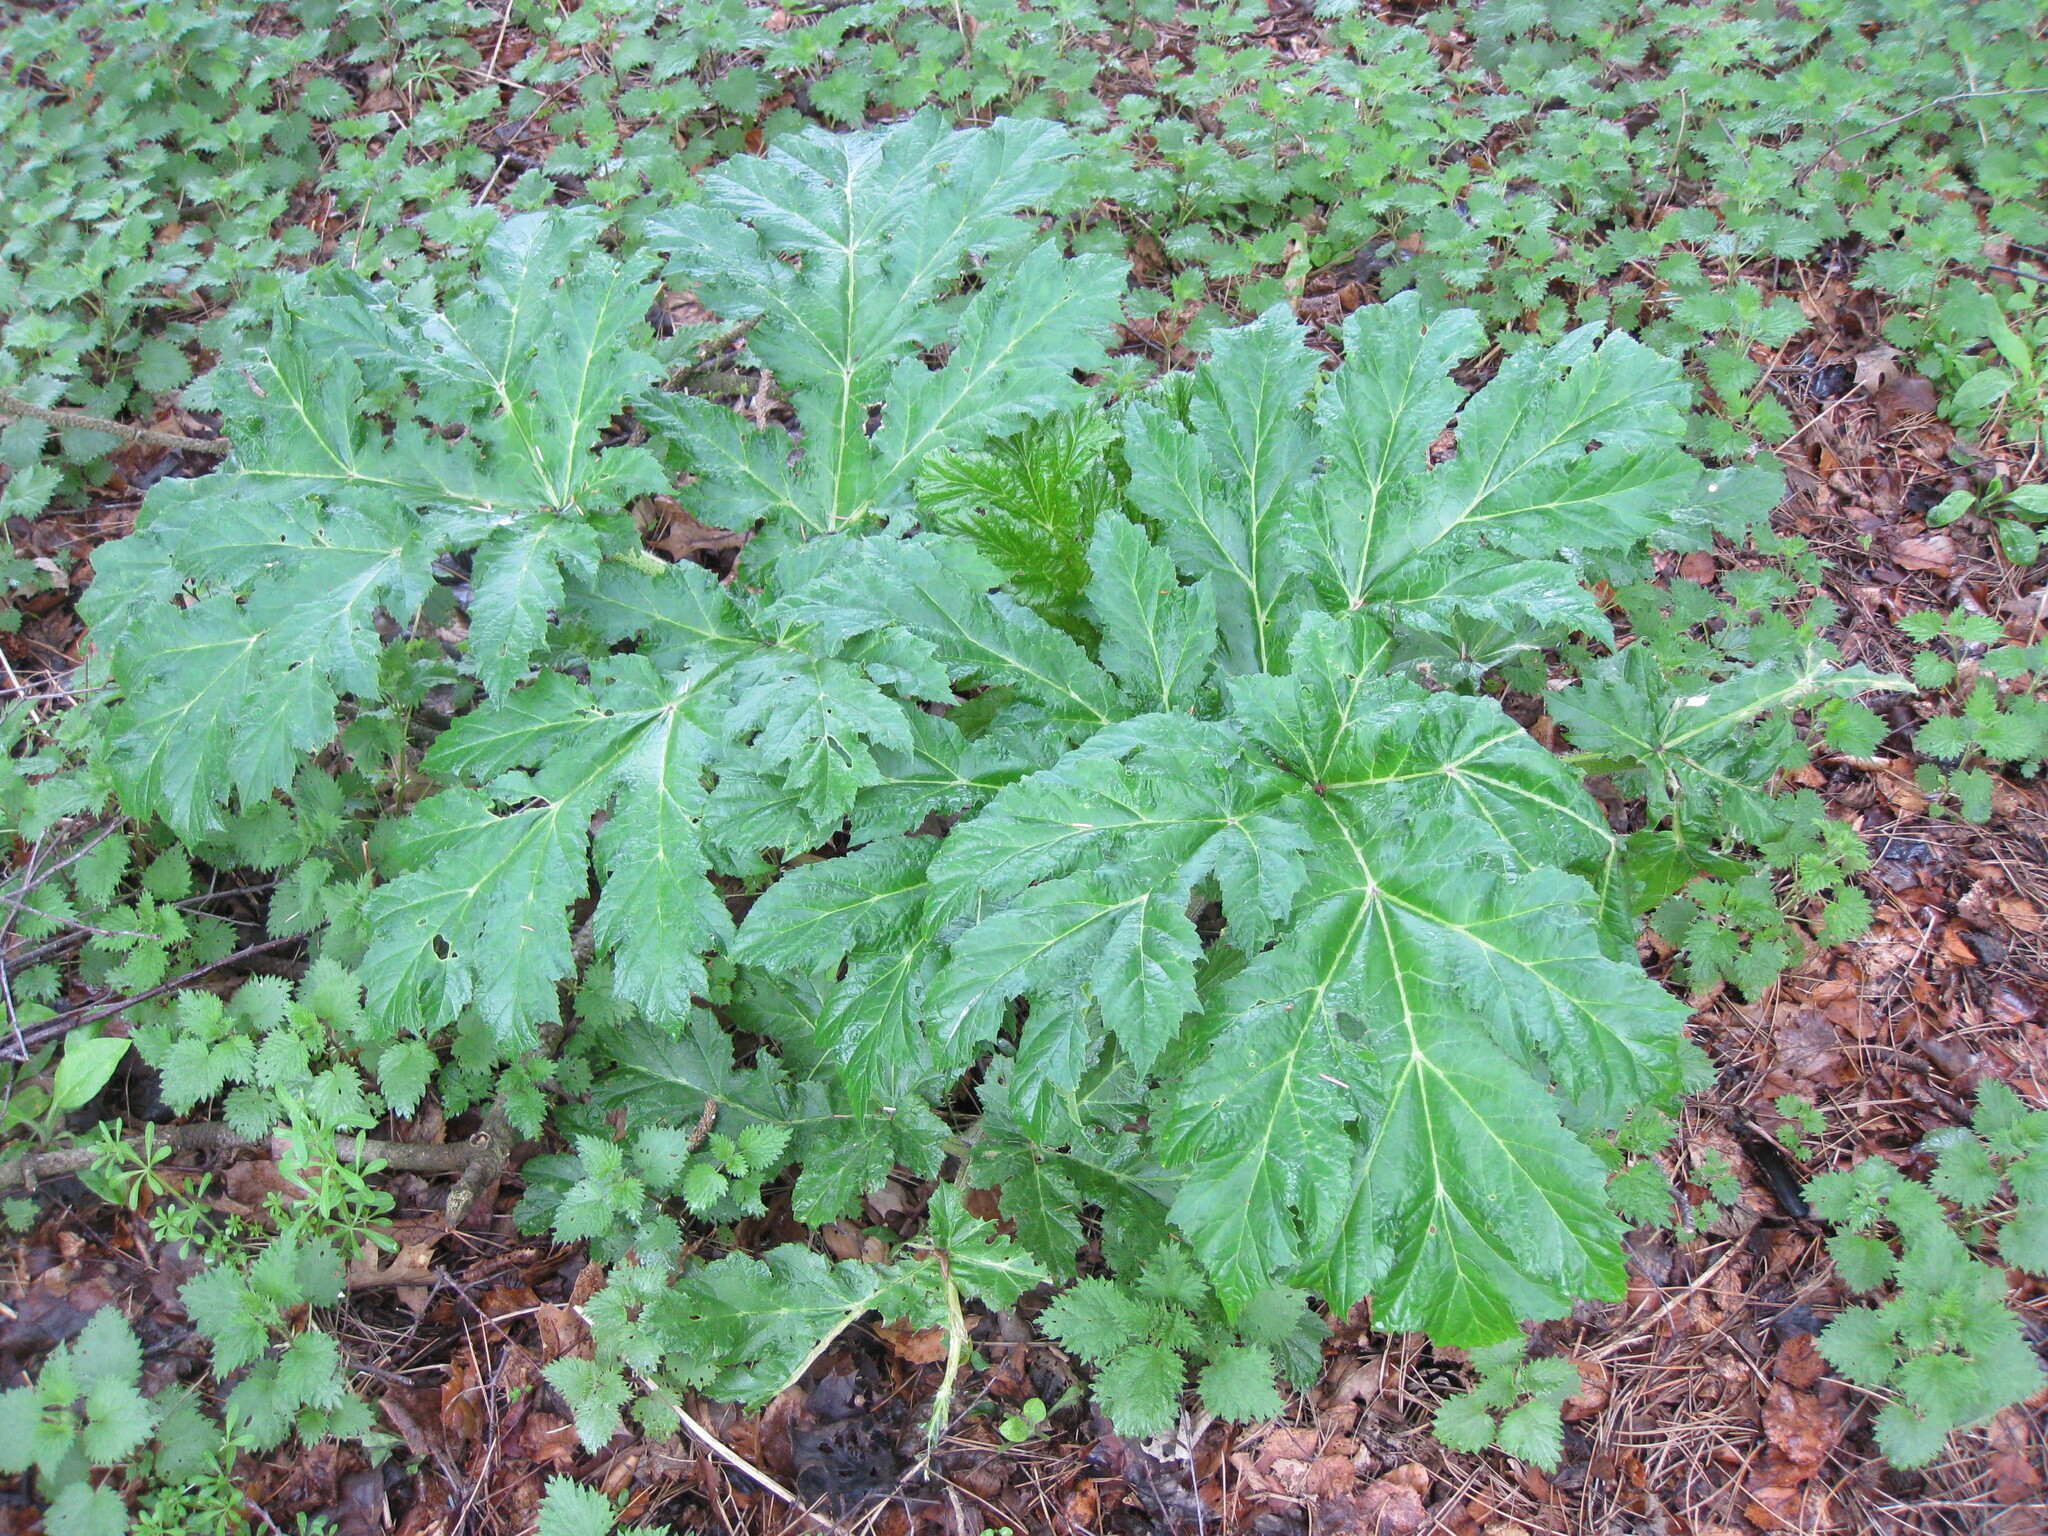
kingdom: Plantae
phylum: Tracheophyta
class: Magnoliopsida
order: Apiales
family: Apiaceae
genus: Heracleum
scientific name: Heracleum mantegazzianum
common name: Giant hogweed
